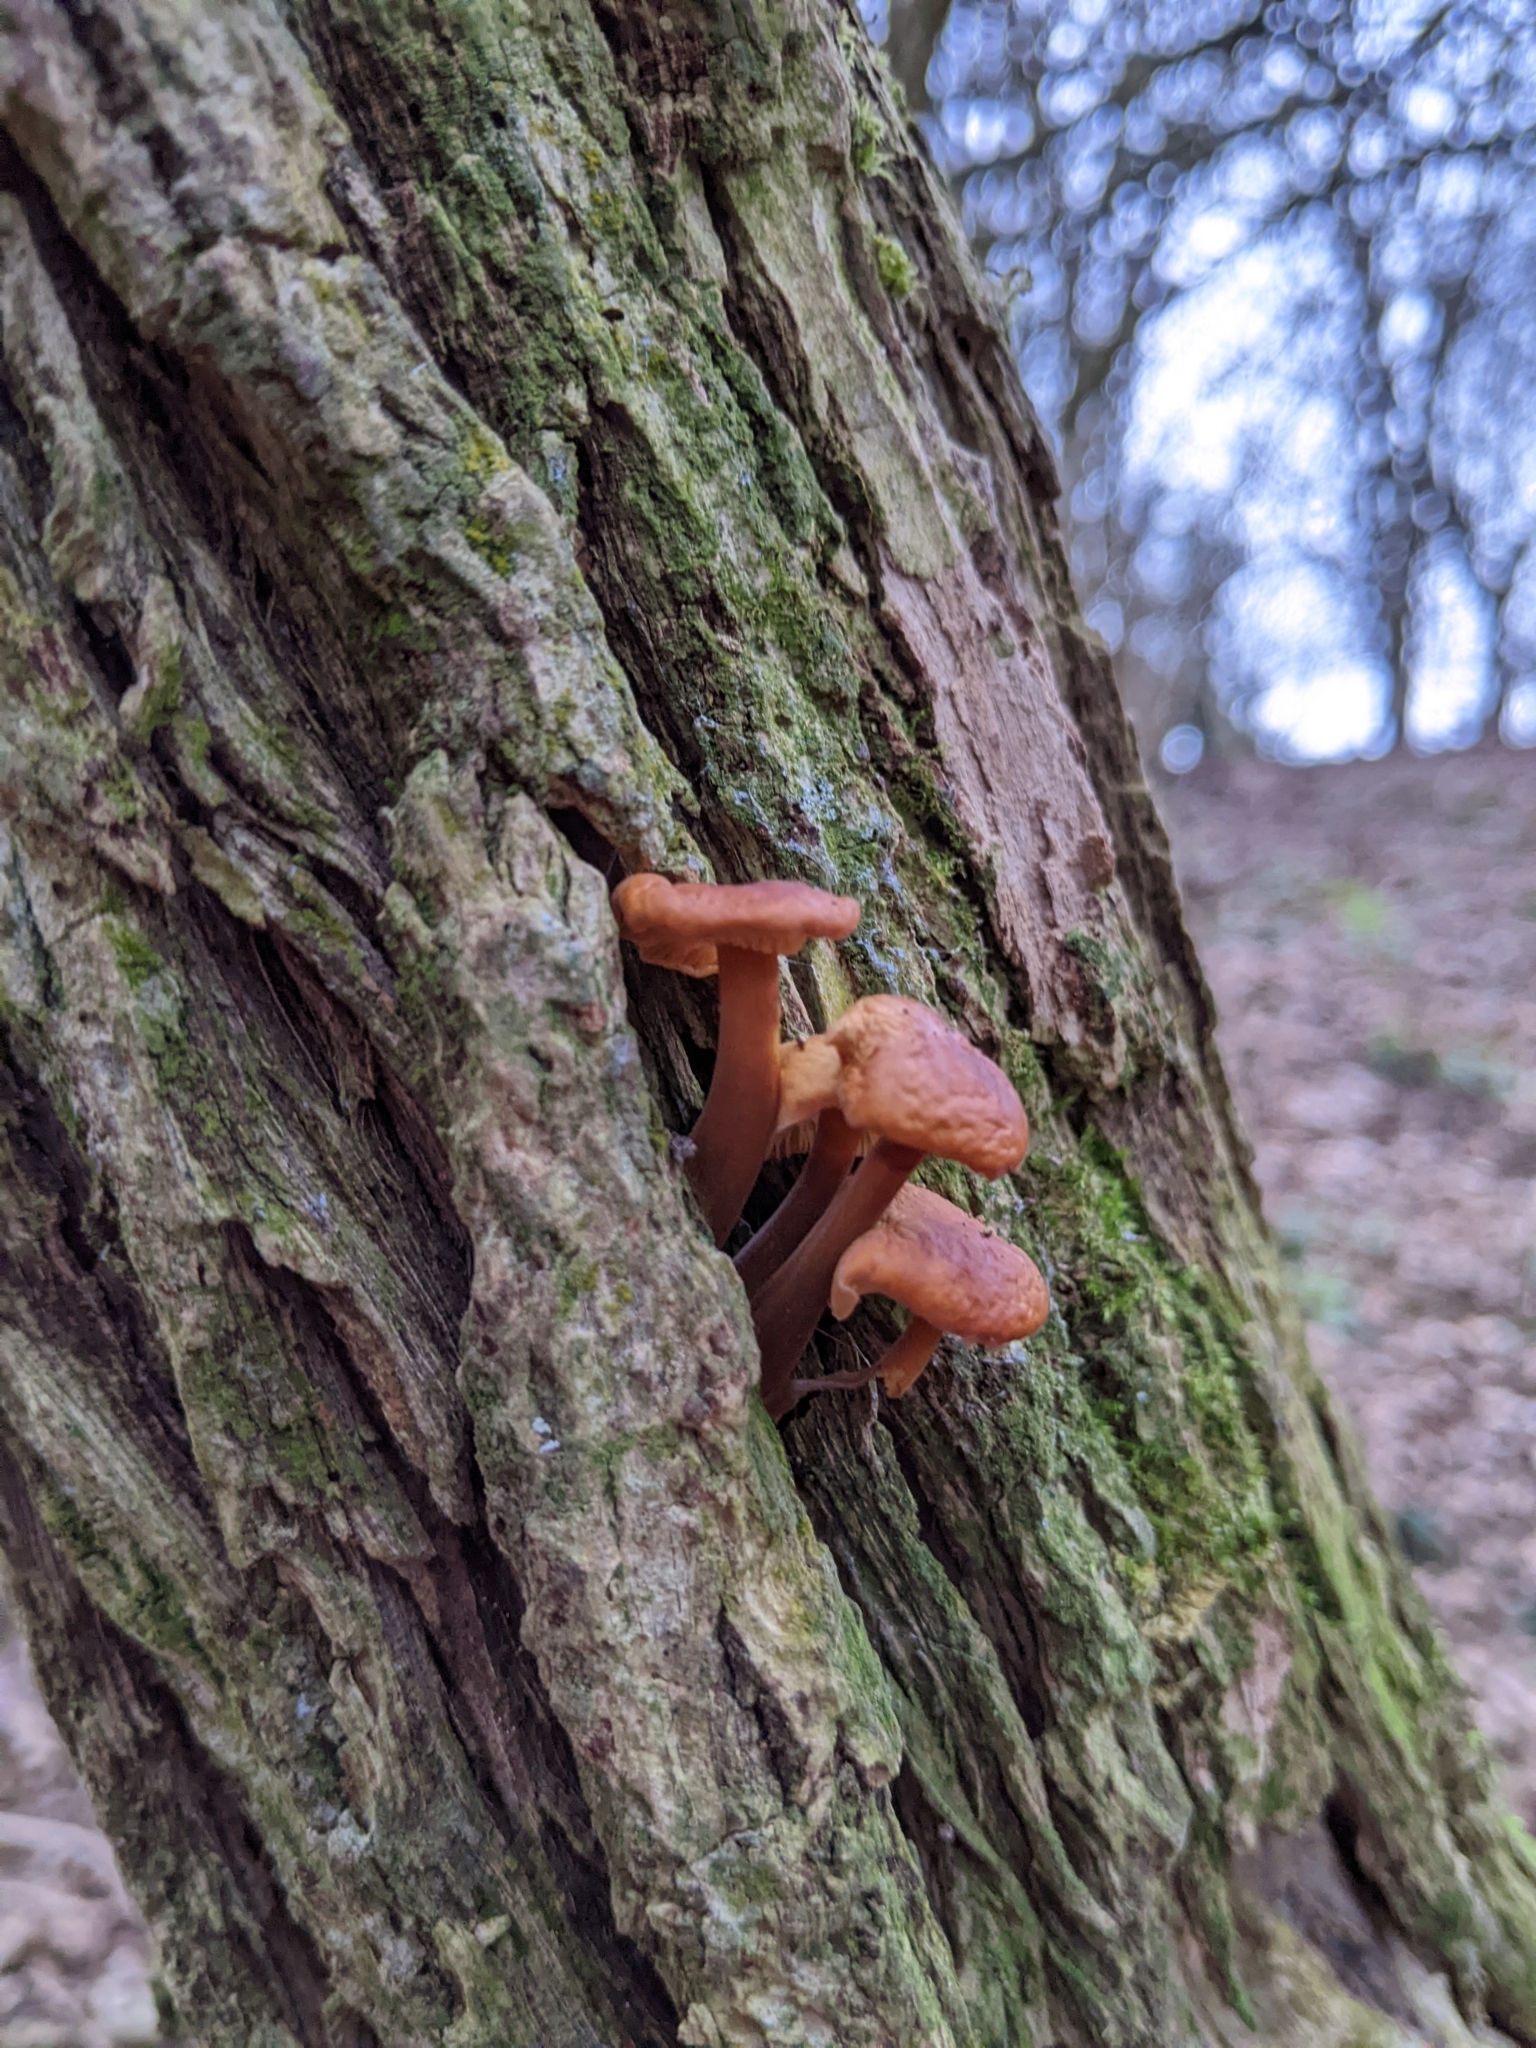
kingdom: Fungi
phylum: Basidiomycota
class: Agaricomycetes
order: Agaricales
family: Physalacriaceae
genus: Flammulina
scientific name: Flammulina
